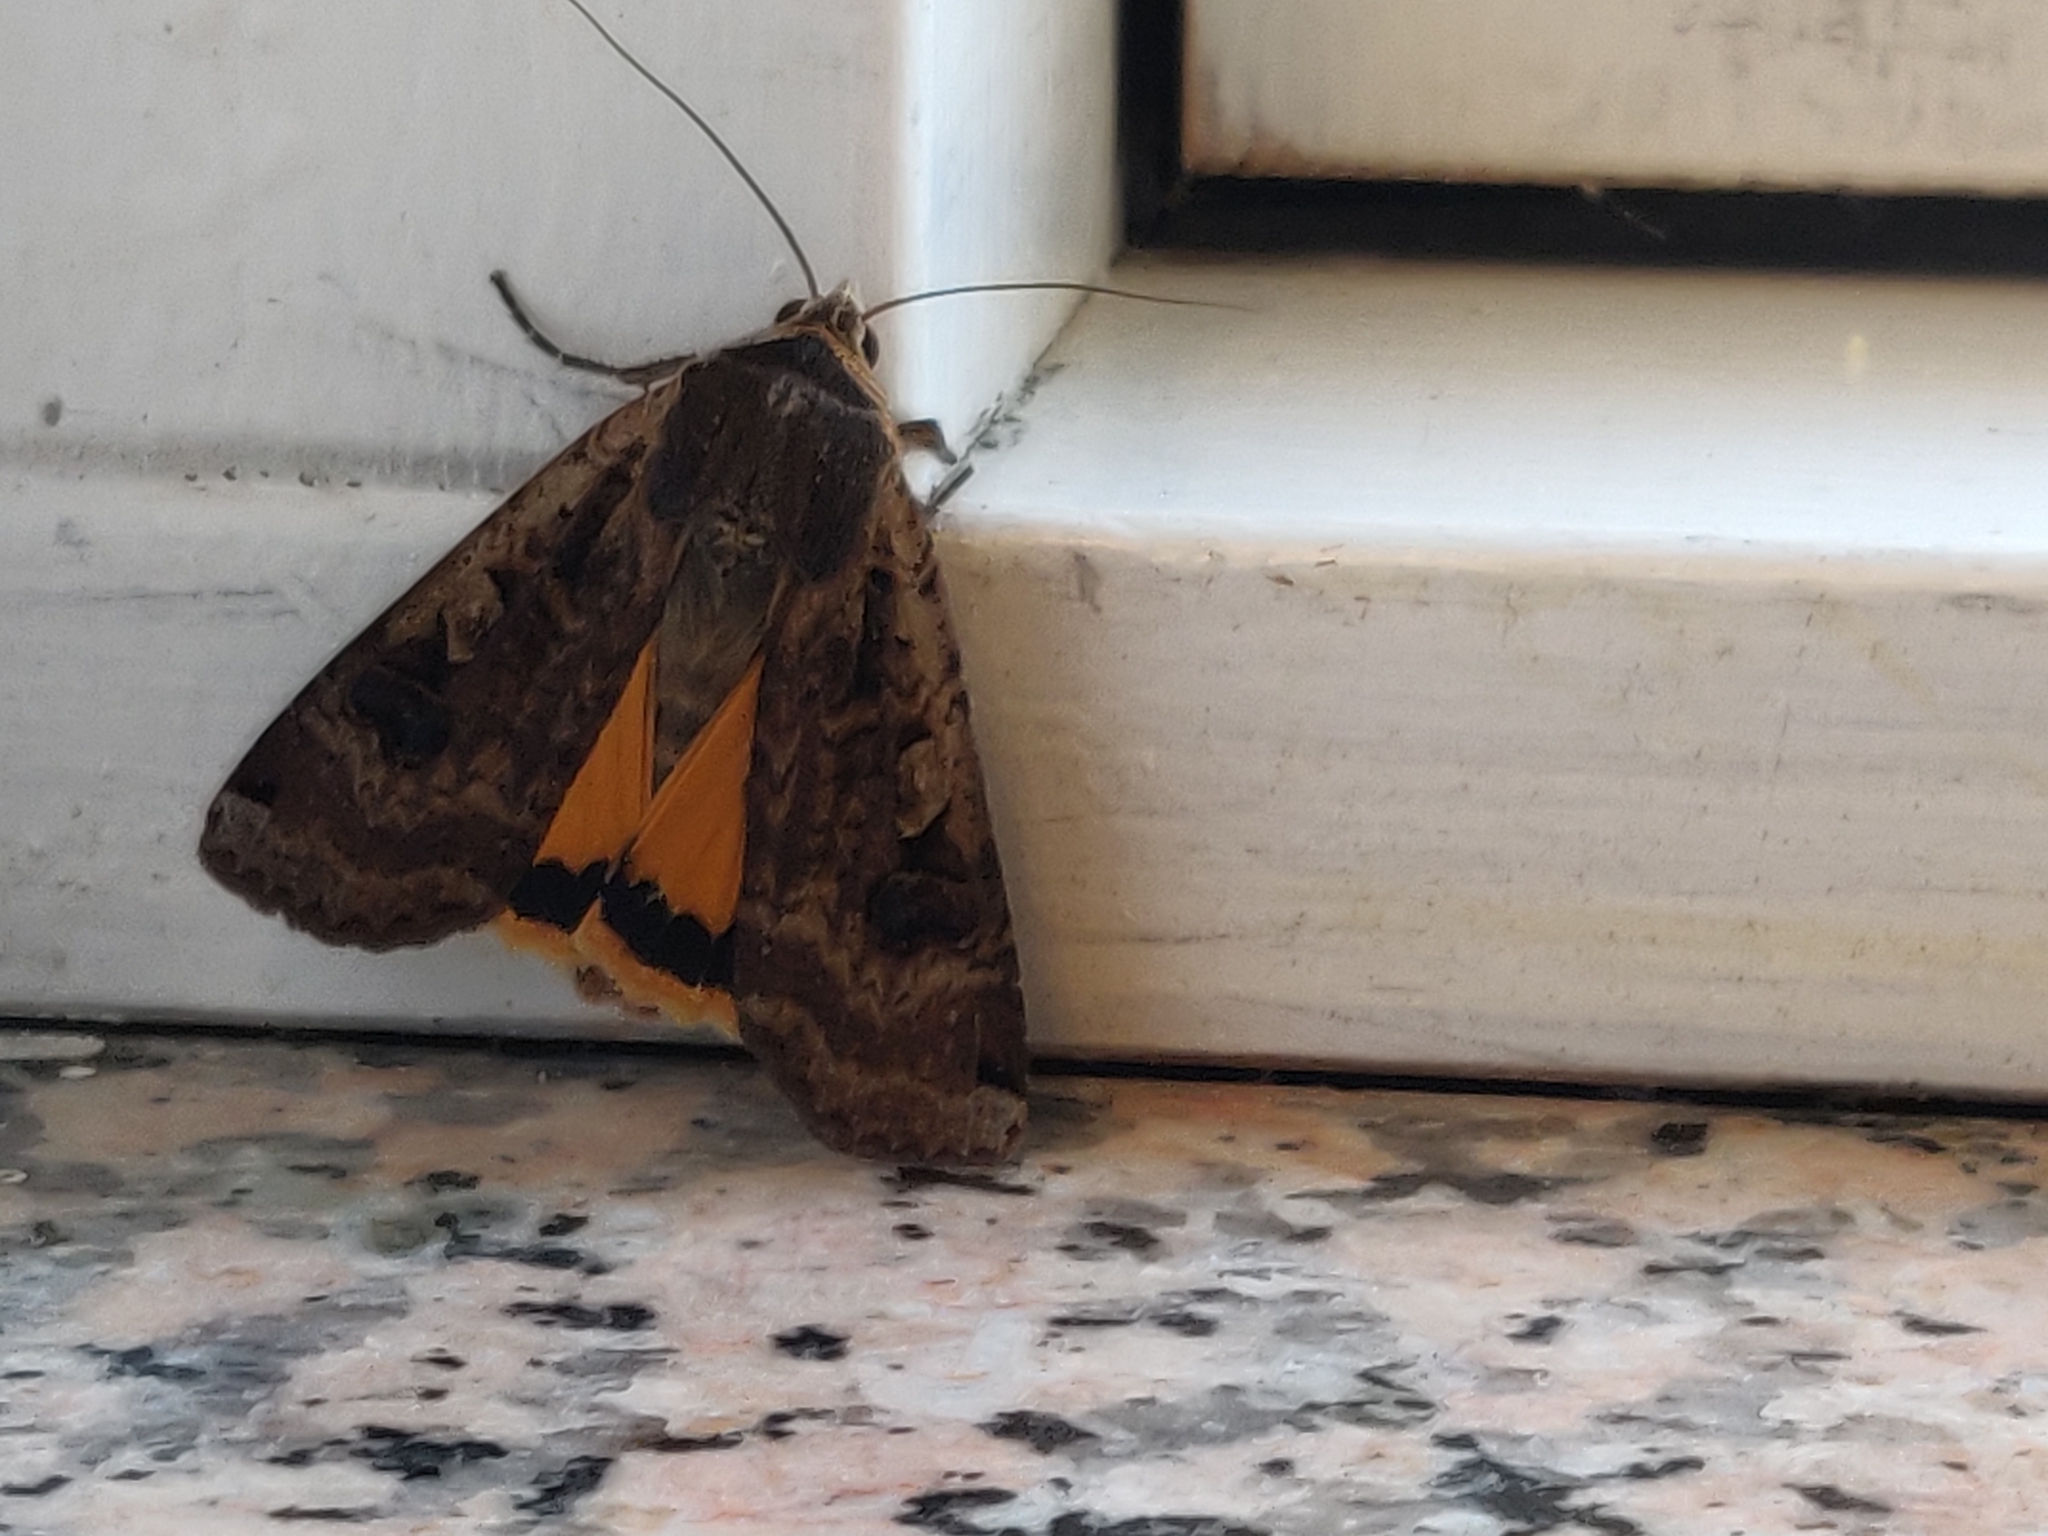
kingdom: Animalia
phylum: Arthropoda
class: Insecta
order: Lepidoptera
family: Noctuidae
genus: Noctua
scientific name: Noctua pronuba
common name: Large yellow underwing
